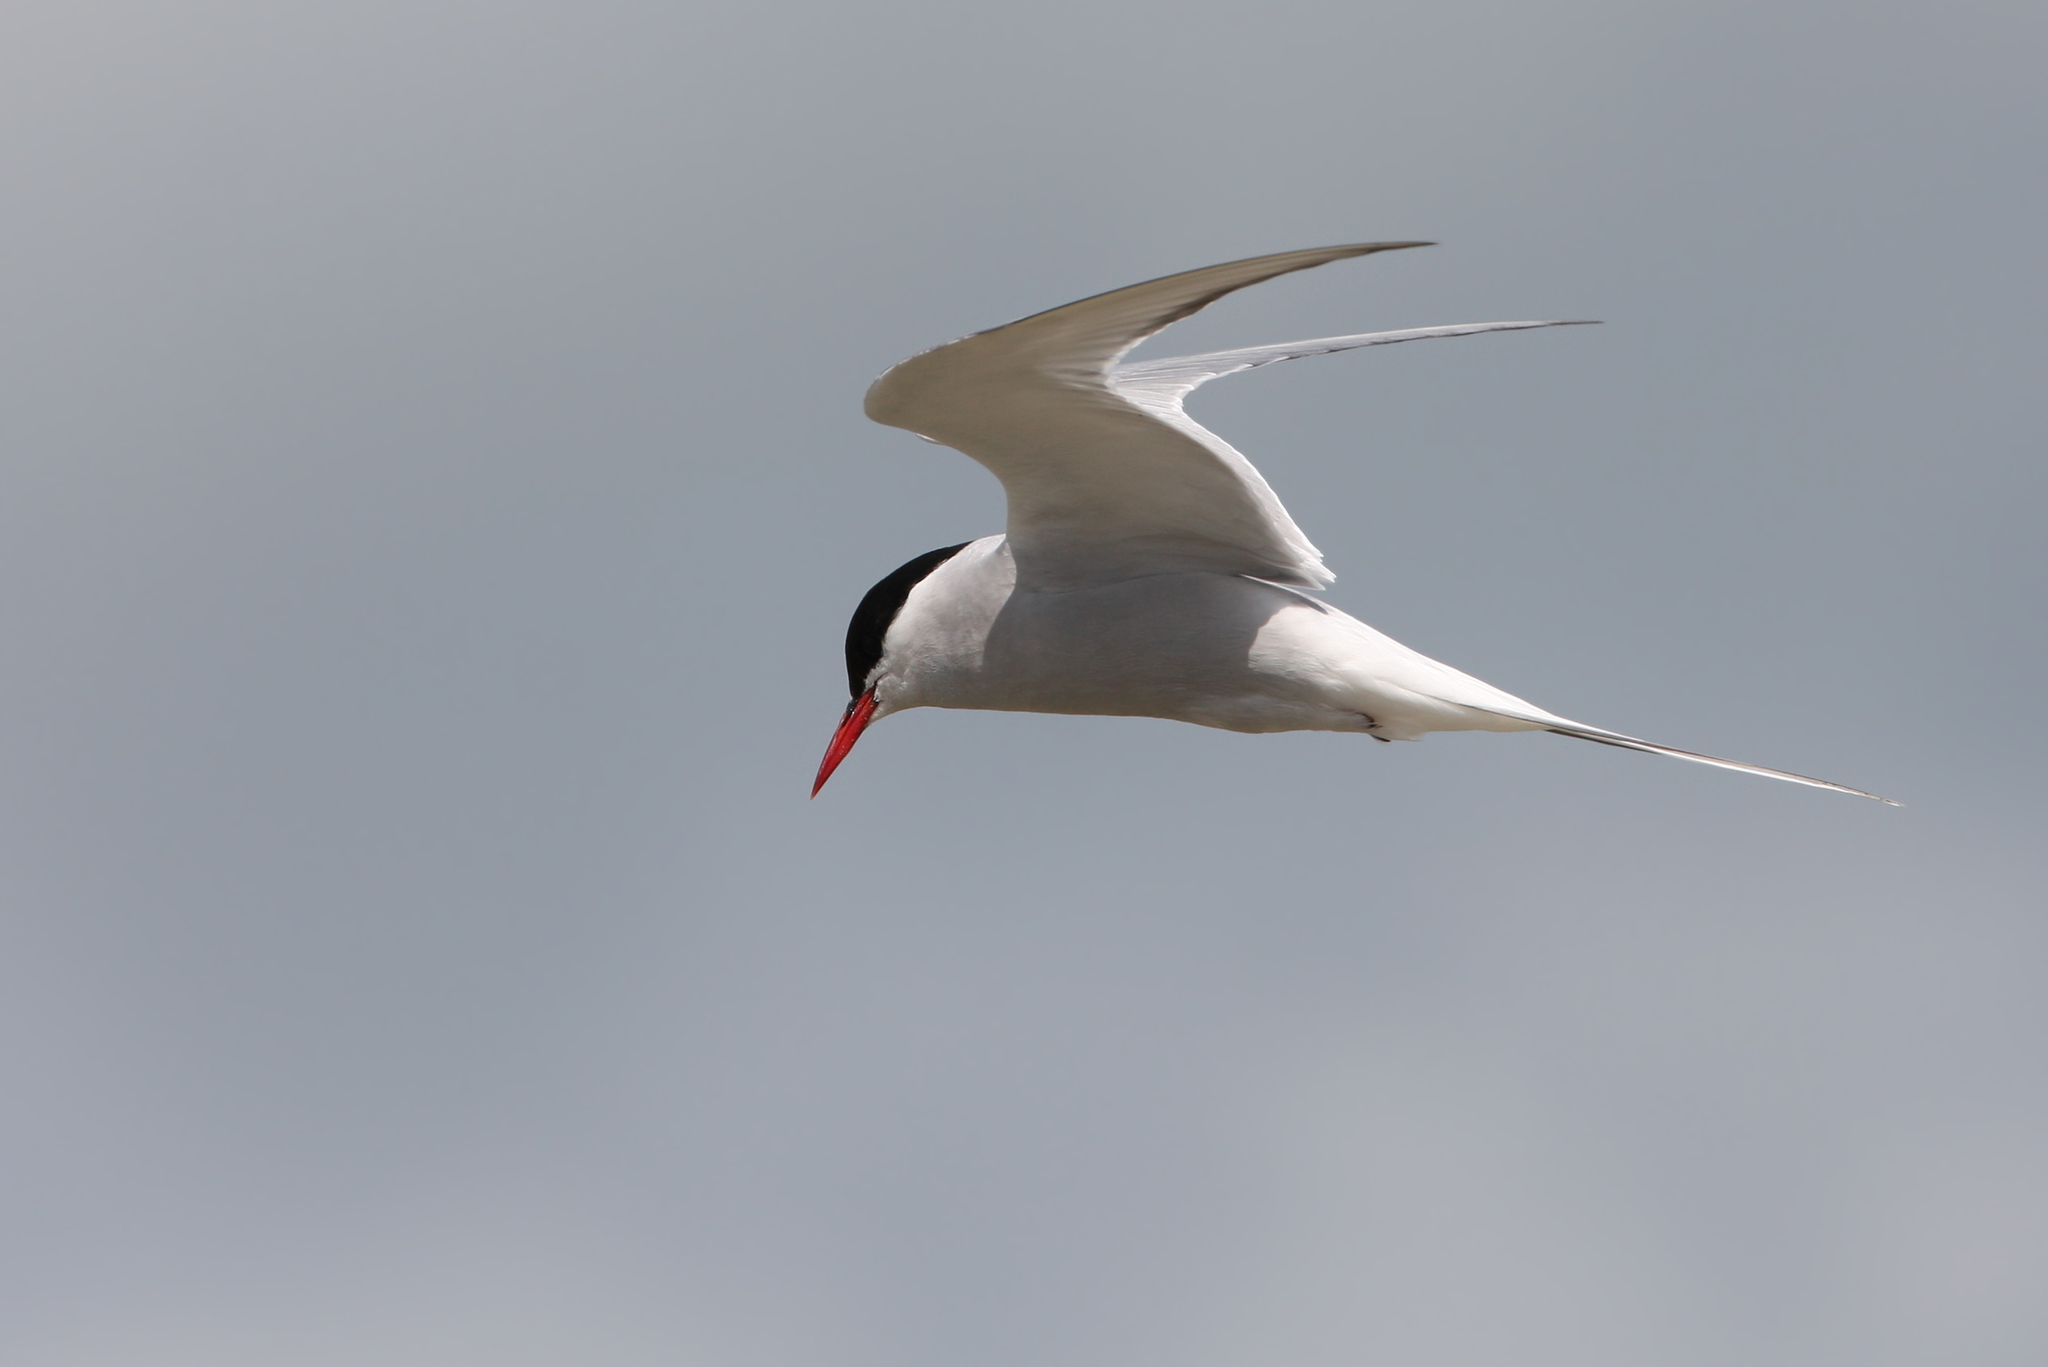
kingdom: Animalia
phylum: Chordata
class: Aves
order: Charadriiformes
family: Laridae
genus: Sterna
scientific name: Sterna paradisaea
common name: Arctic tern
